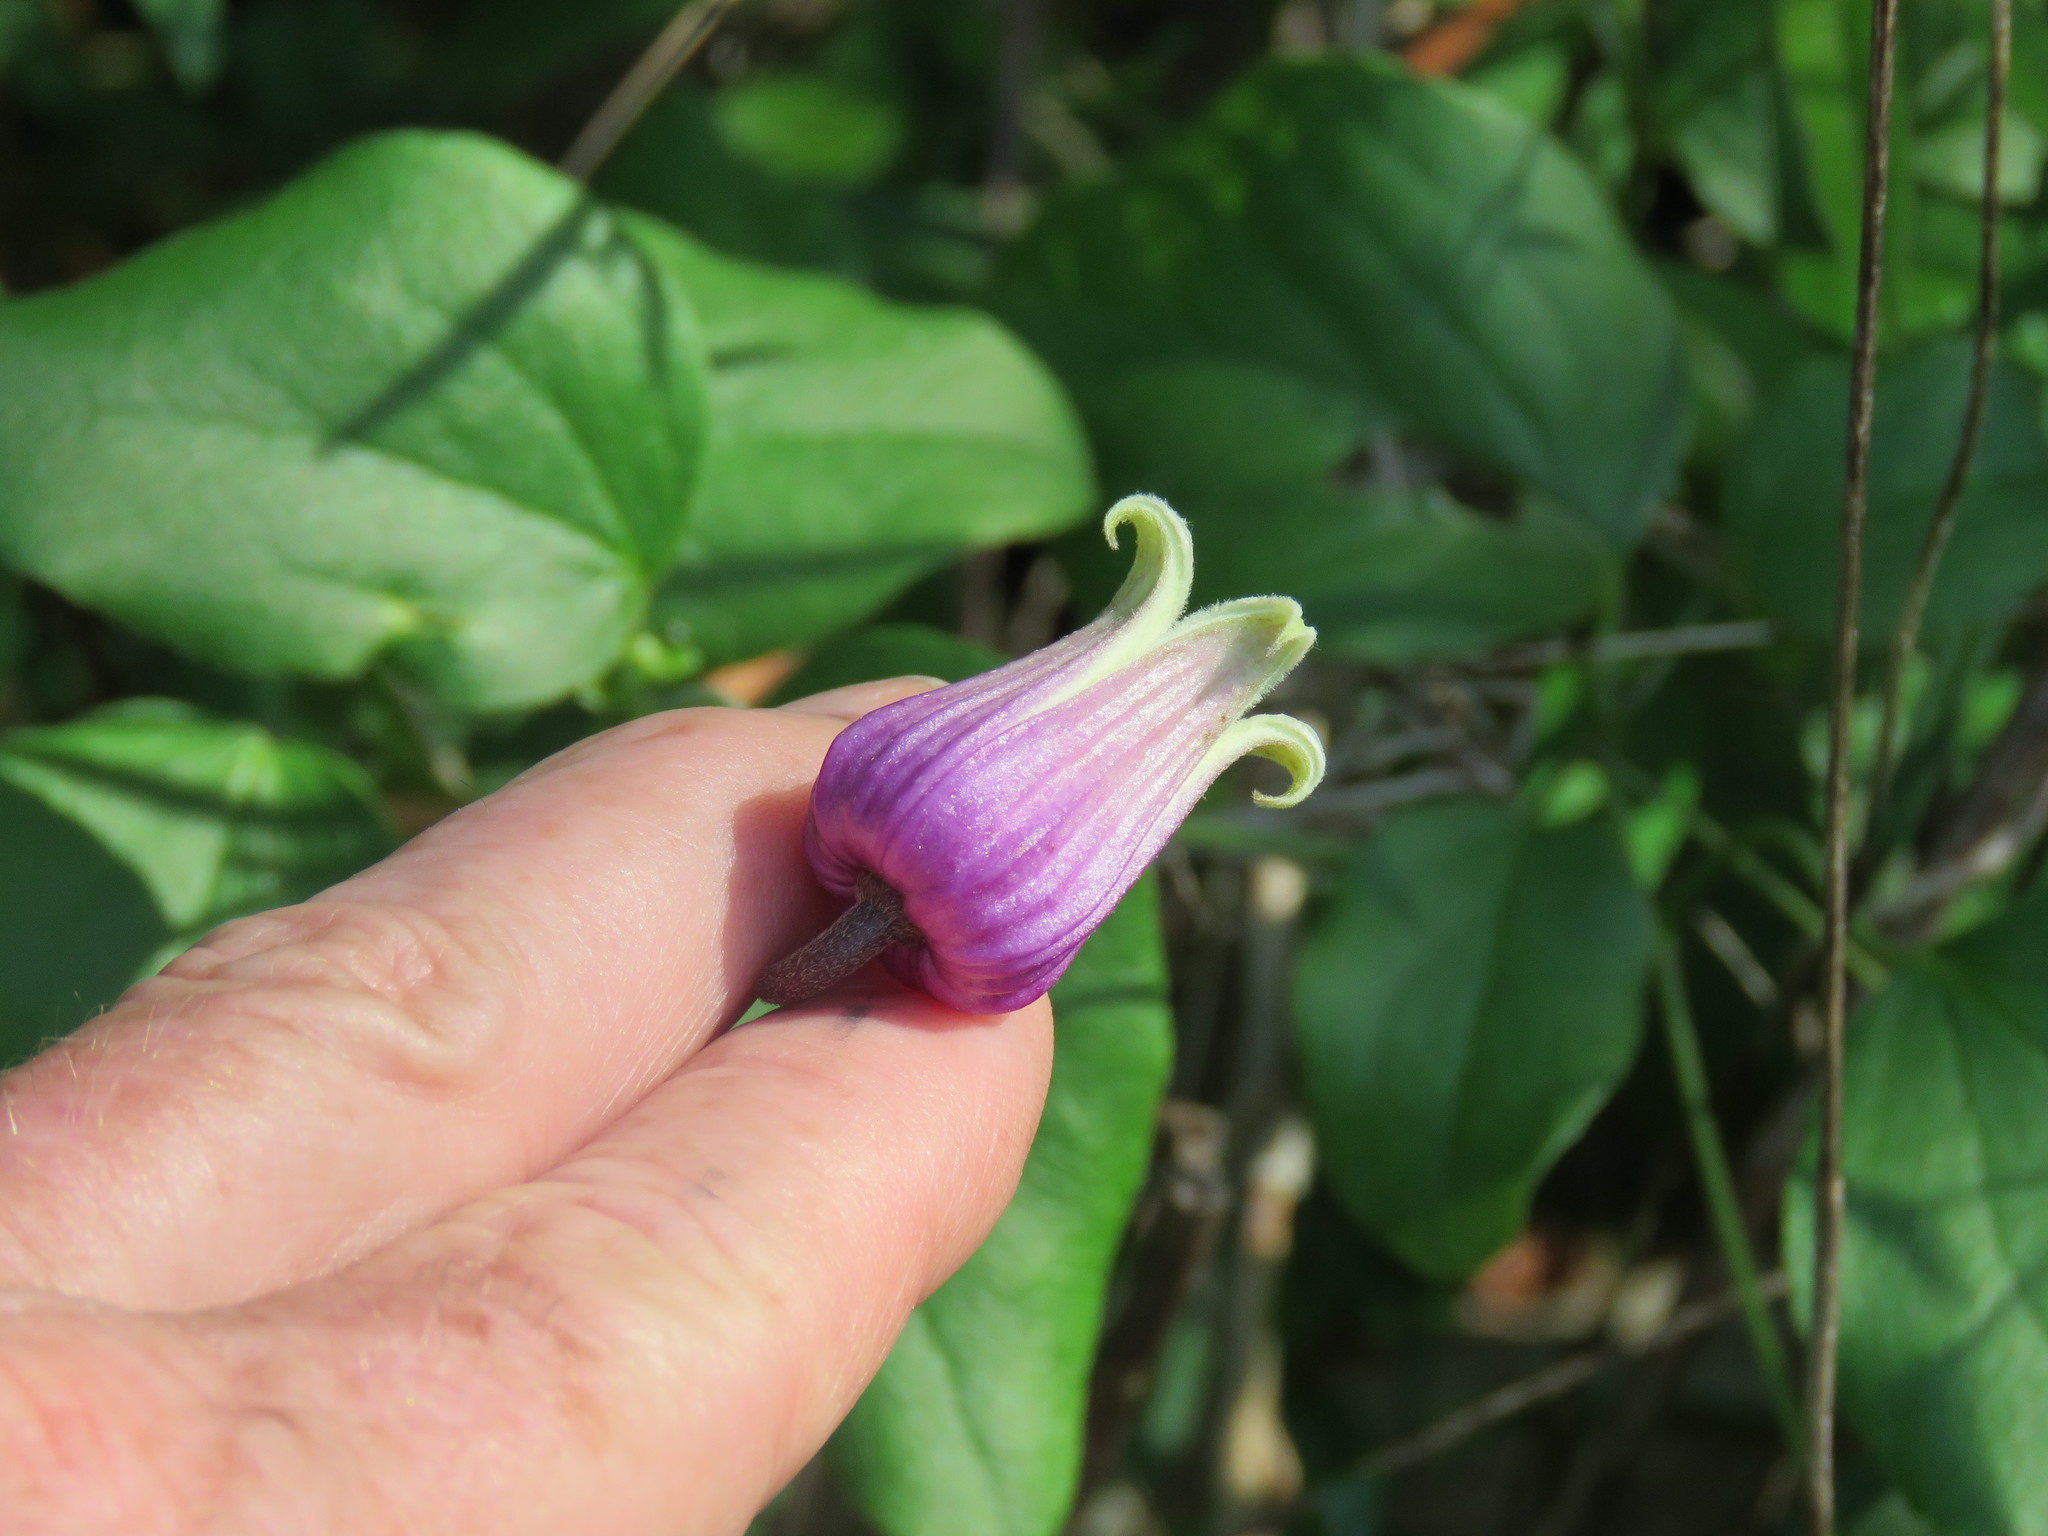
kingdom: Plantae
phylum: Tracheophyta
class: Magnoliopsida
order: Ranunculales
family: Ranunculaceae
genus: Clematis
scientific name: Clematis reticulata
